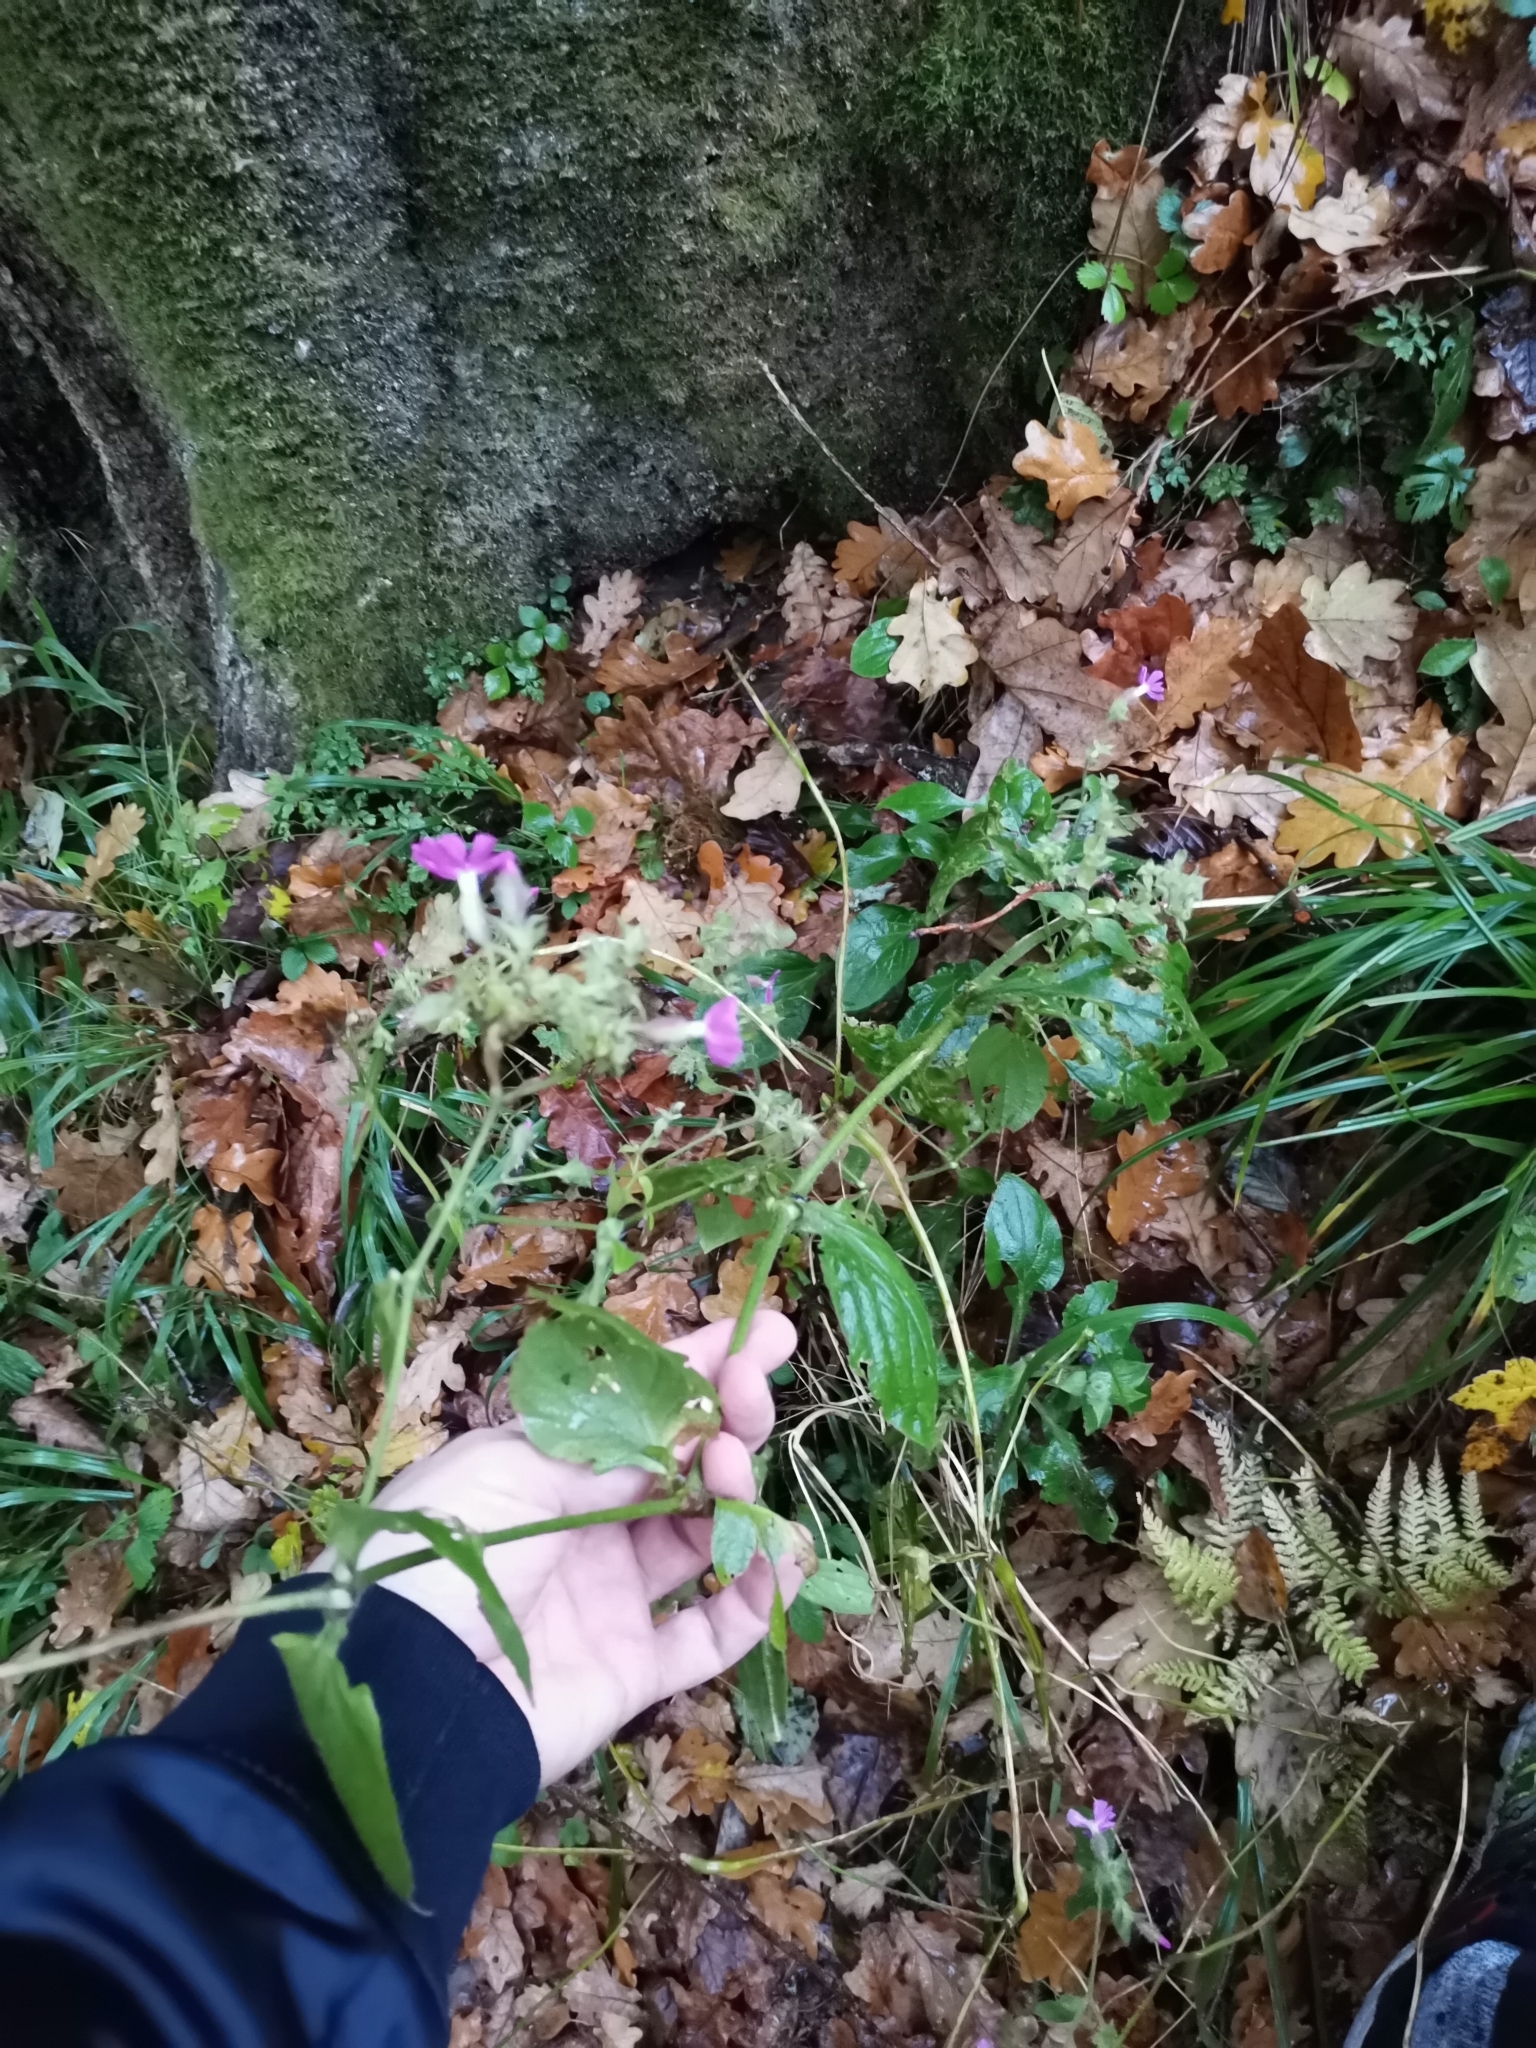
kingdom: Plantae
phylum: Tracheophyta
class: Magnoliopsida
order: Caryophyllales
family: Caryophyllaceae
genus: Silene
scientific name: Silene dioica
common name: Red campion
